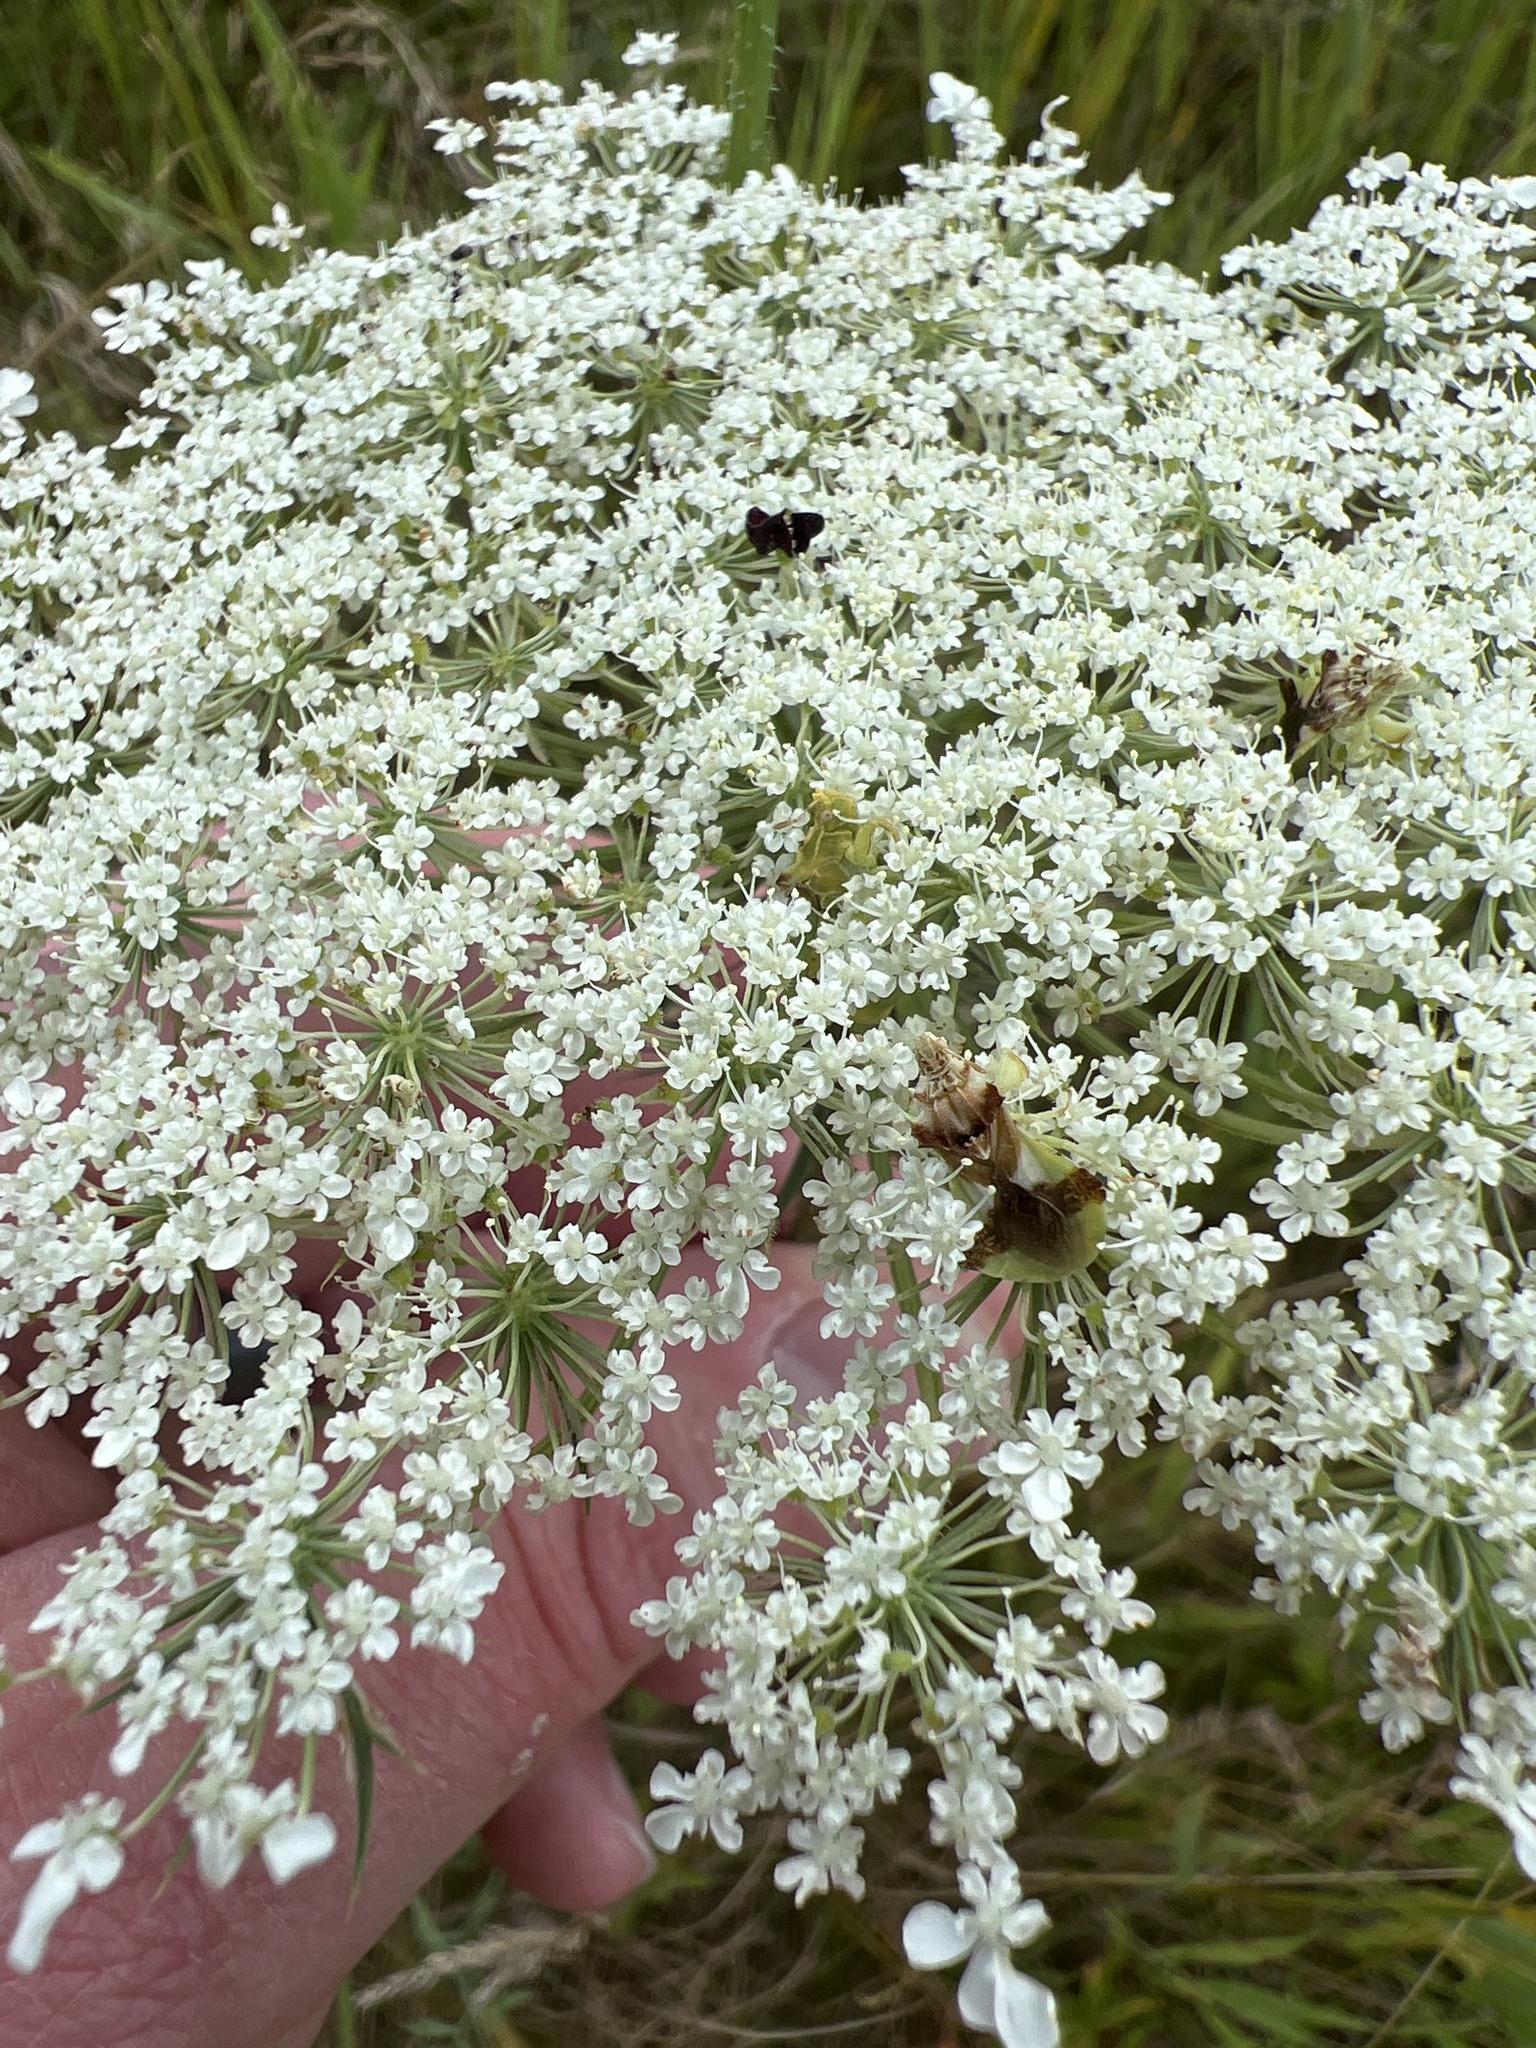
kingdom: Plantae
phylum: Tracheophyta
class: Magnoliopsida
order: Apiales
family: Apiaceae
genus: Daucus
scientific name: Daucus carota
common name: Wild carrot
